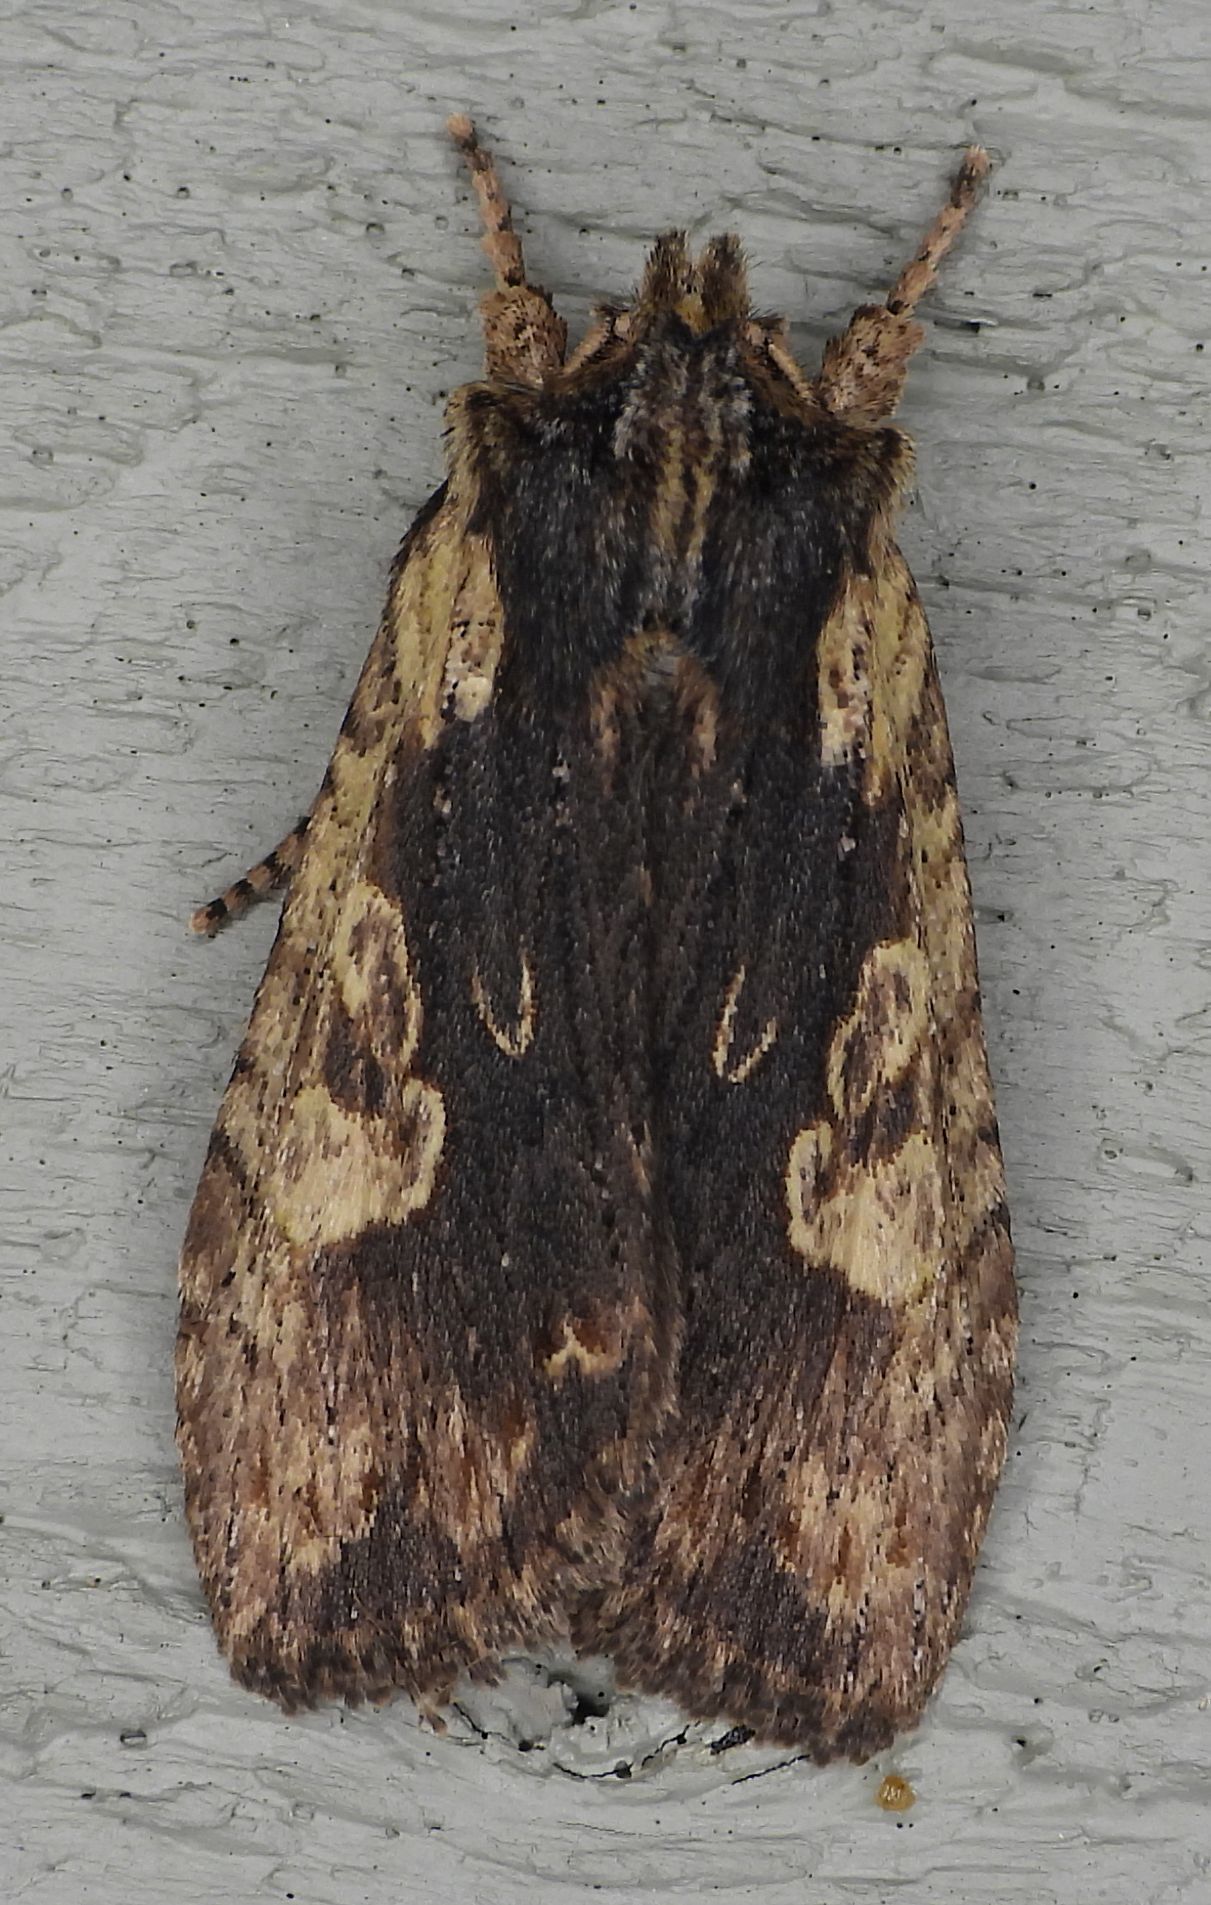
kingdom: Animalia
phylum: Arthropoda
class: Insecta
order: Lepidoptera
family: Noctuidae
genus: Lithophane
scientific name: Lithophane hemina
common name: Hemina pinion moth
